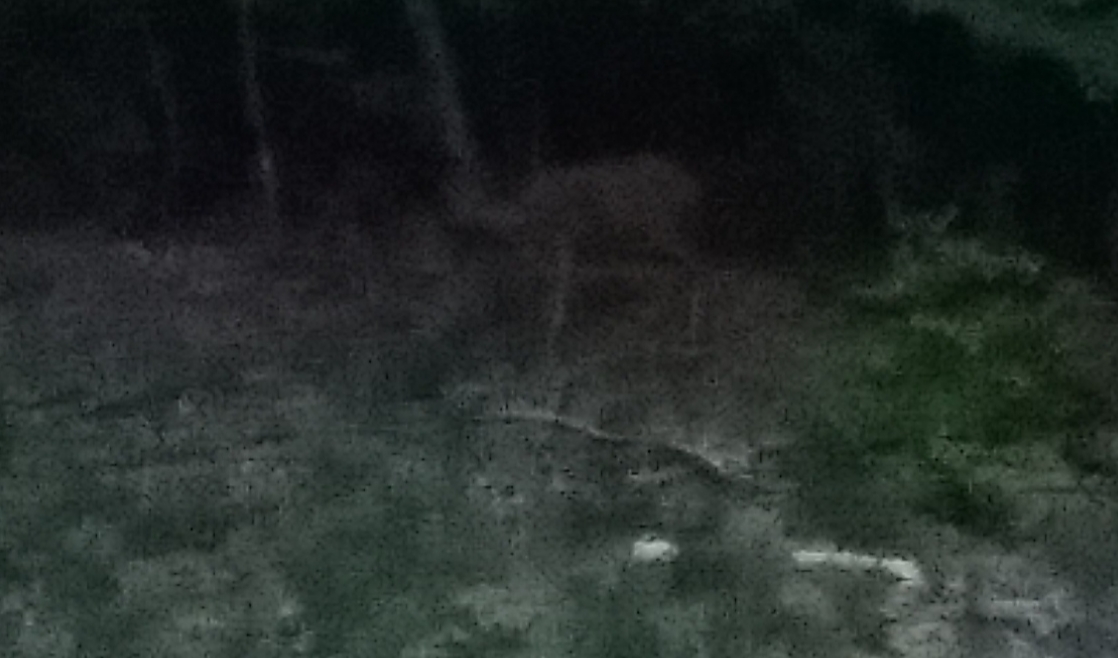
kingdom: Animalia
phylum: Chordata
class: Mammalia
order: Artiodactyla
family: Cervidae
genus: Capreolus
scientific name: Capreolus capreolus
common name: Western roe deer
